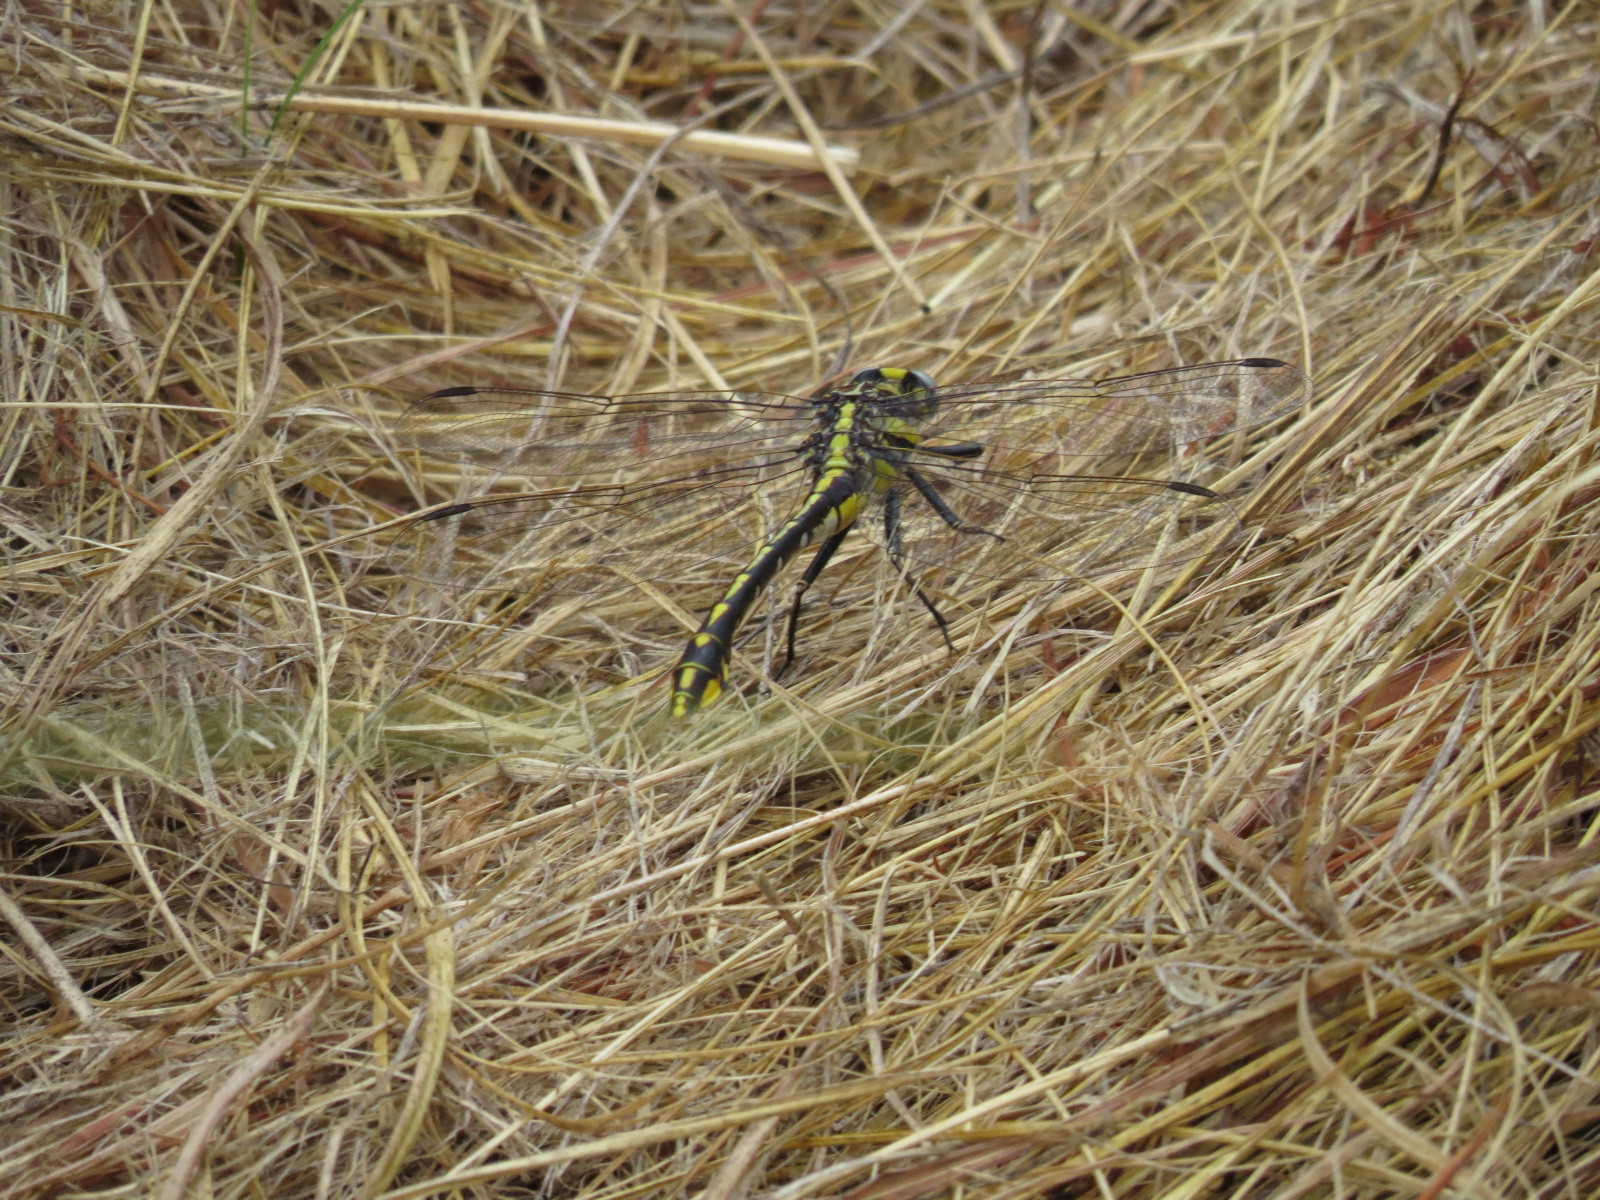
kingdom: Animalia
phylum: Arthropoda
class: Insecta
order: Odonata
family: Gomphidae
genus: Gomphurus
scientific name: Gomphurus externus
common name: Plains clubtail
